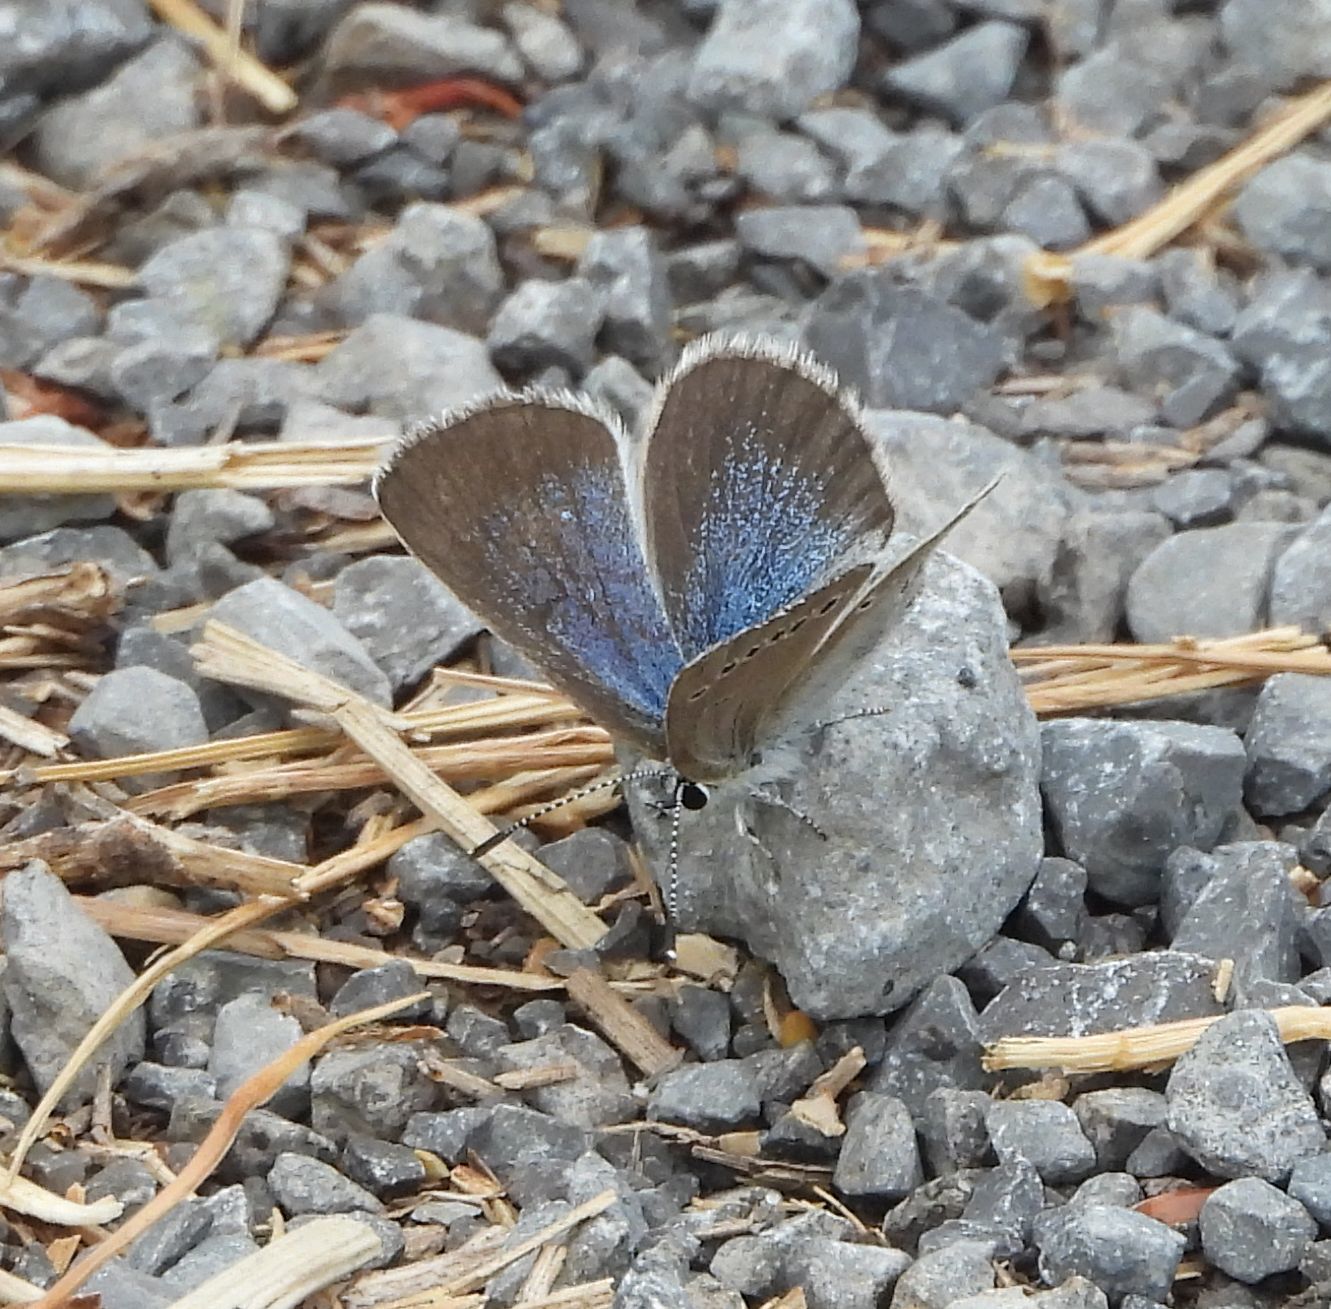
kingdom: Animalia
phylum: Arthropoda
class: Insecta
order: Lepidoptera
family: Lycaenidae
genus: Glaucopsyche
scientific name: Glaucopsyche lygdamus
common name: Silvery blue
